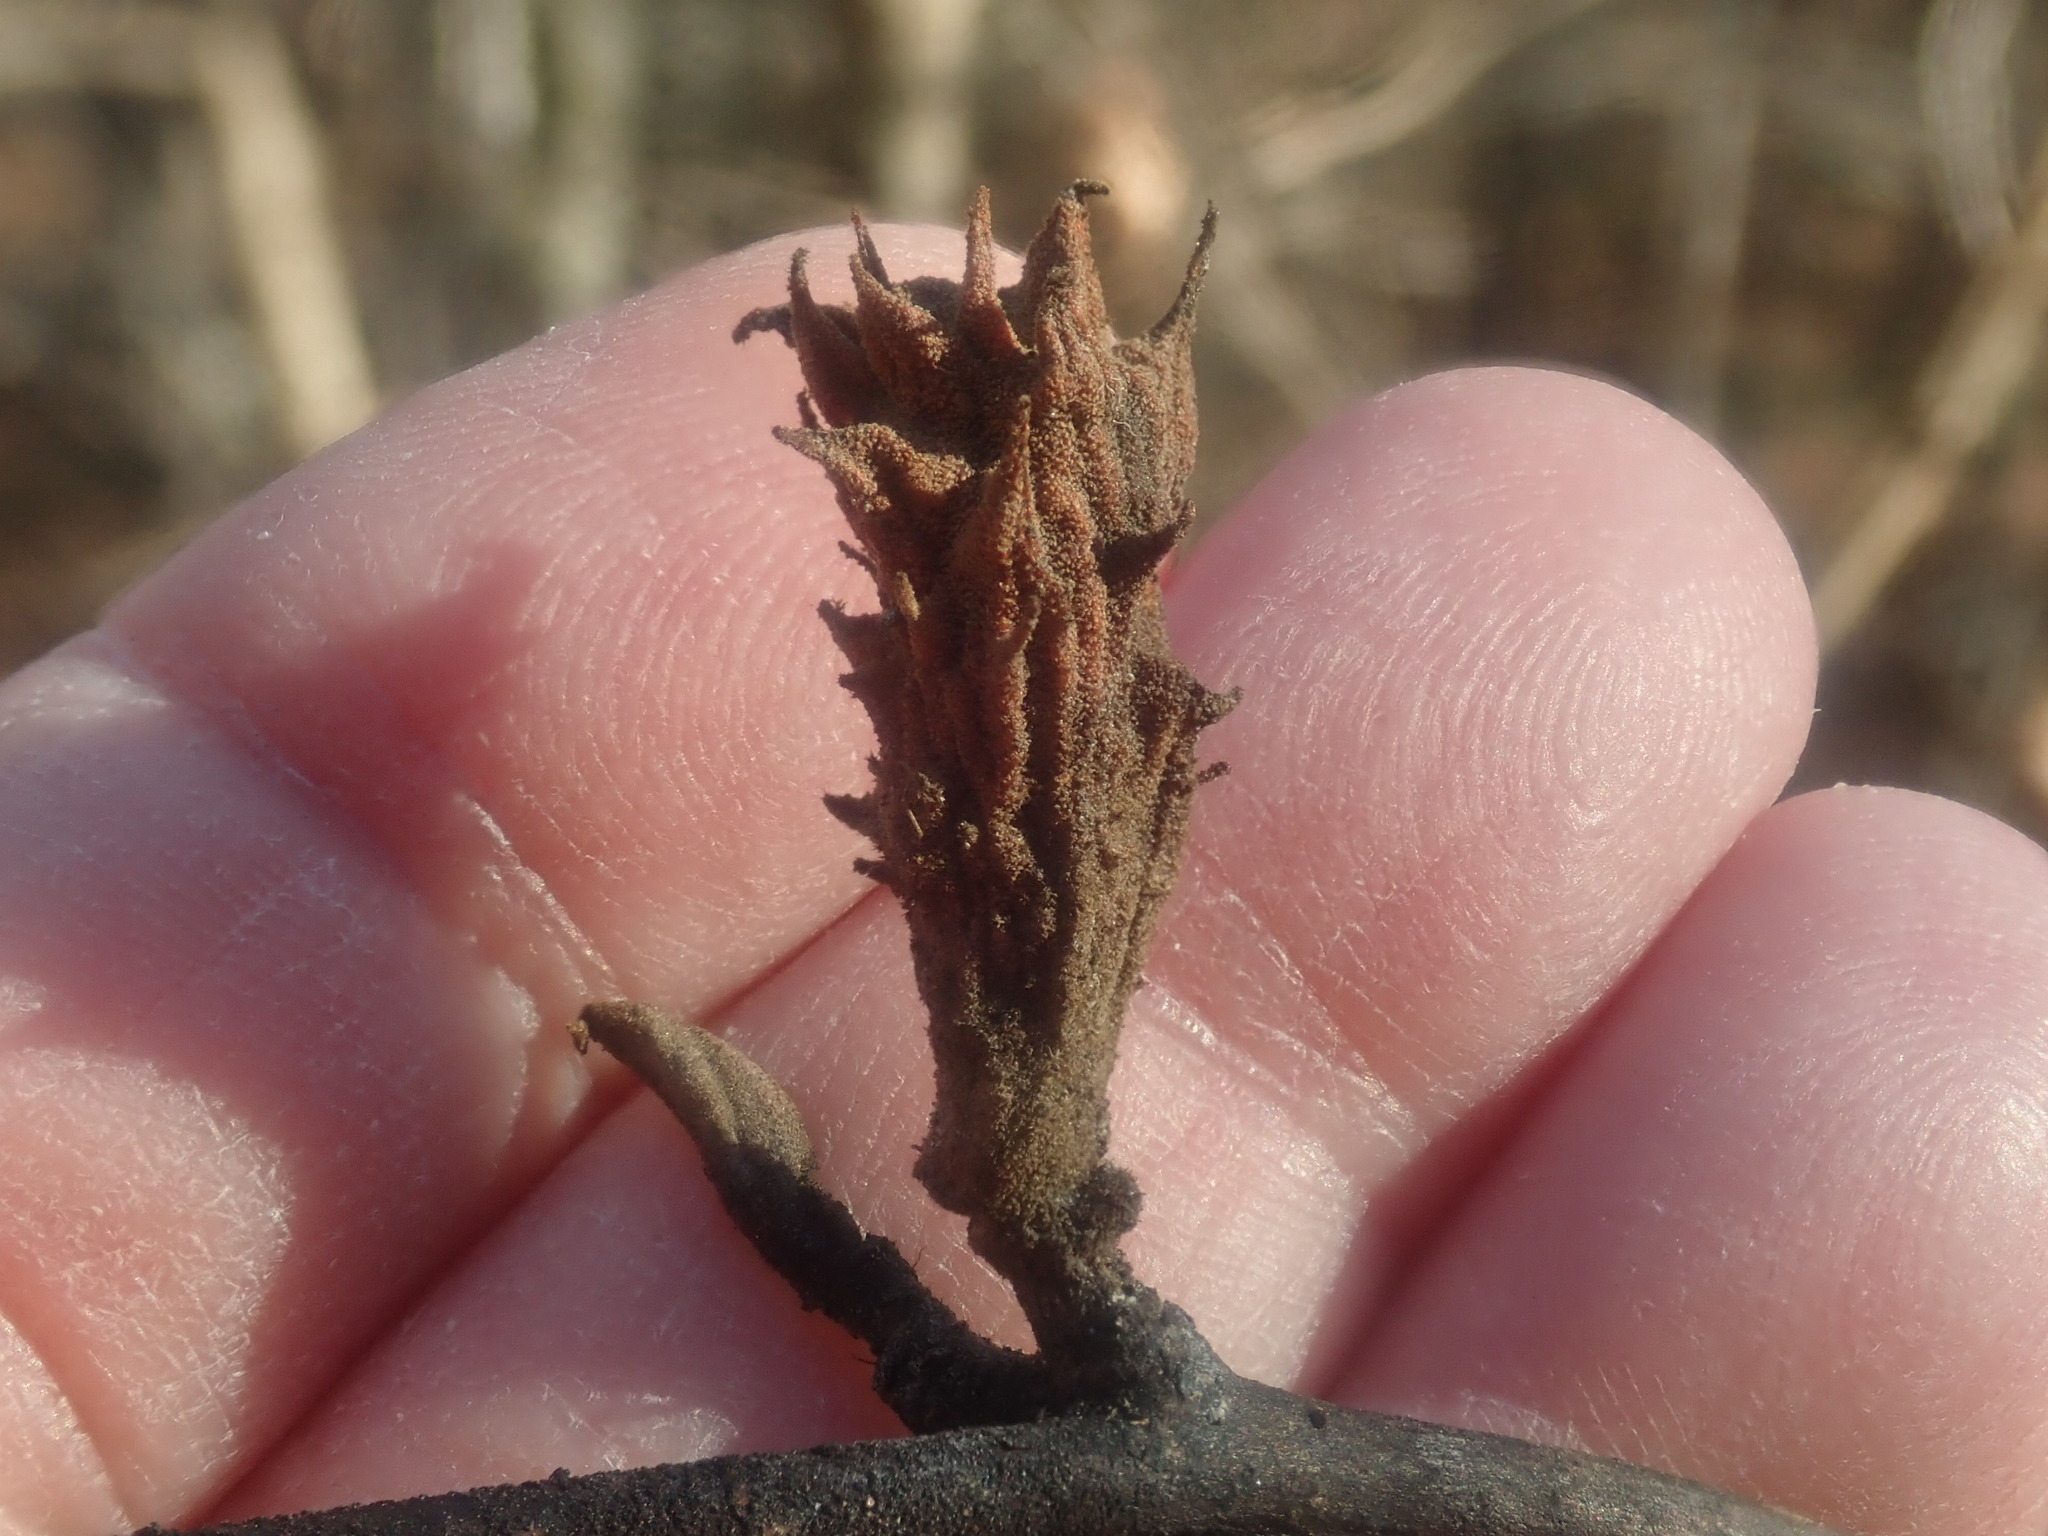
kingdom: Animalia
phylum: Arthropoda
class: Insecta
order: Hemiptera
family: Aphididae
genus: Hamamelistes
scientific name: Hamamelistes spinosus
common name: Witch hazel gall aphid
